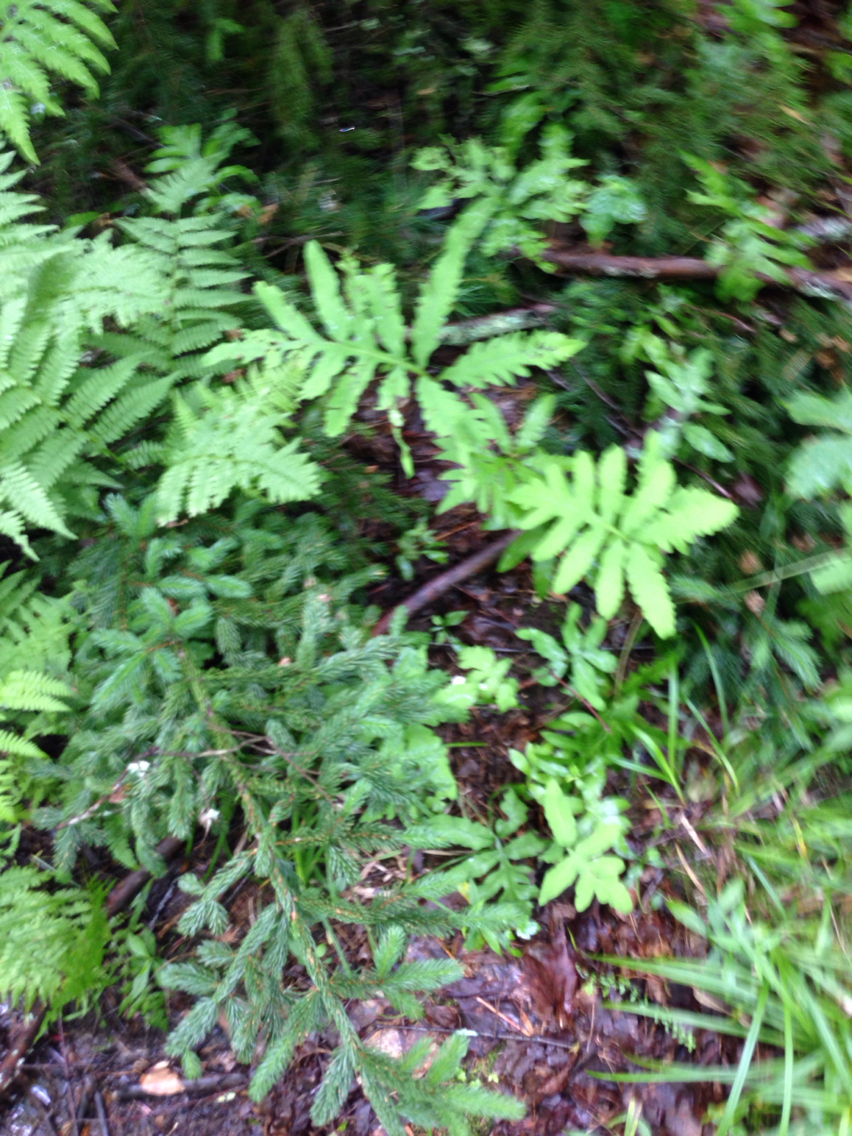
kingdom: Plantae
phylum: Tracheophyta
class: Polypodiopsida
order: Polypodiales
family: Onocleaceae
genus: Onoclea
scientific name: Onoclea sensibilis
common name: Sensitive fern
